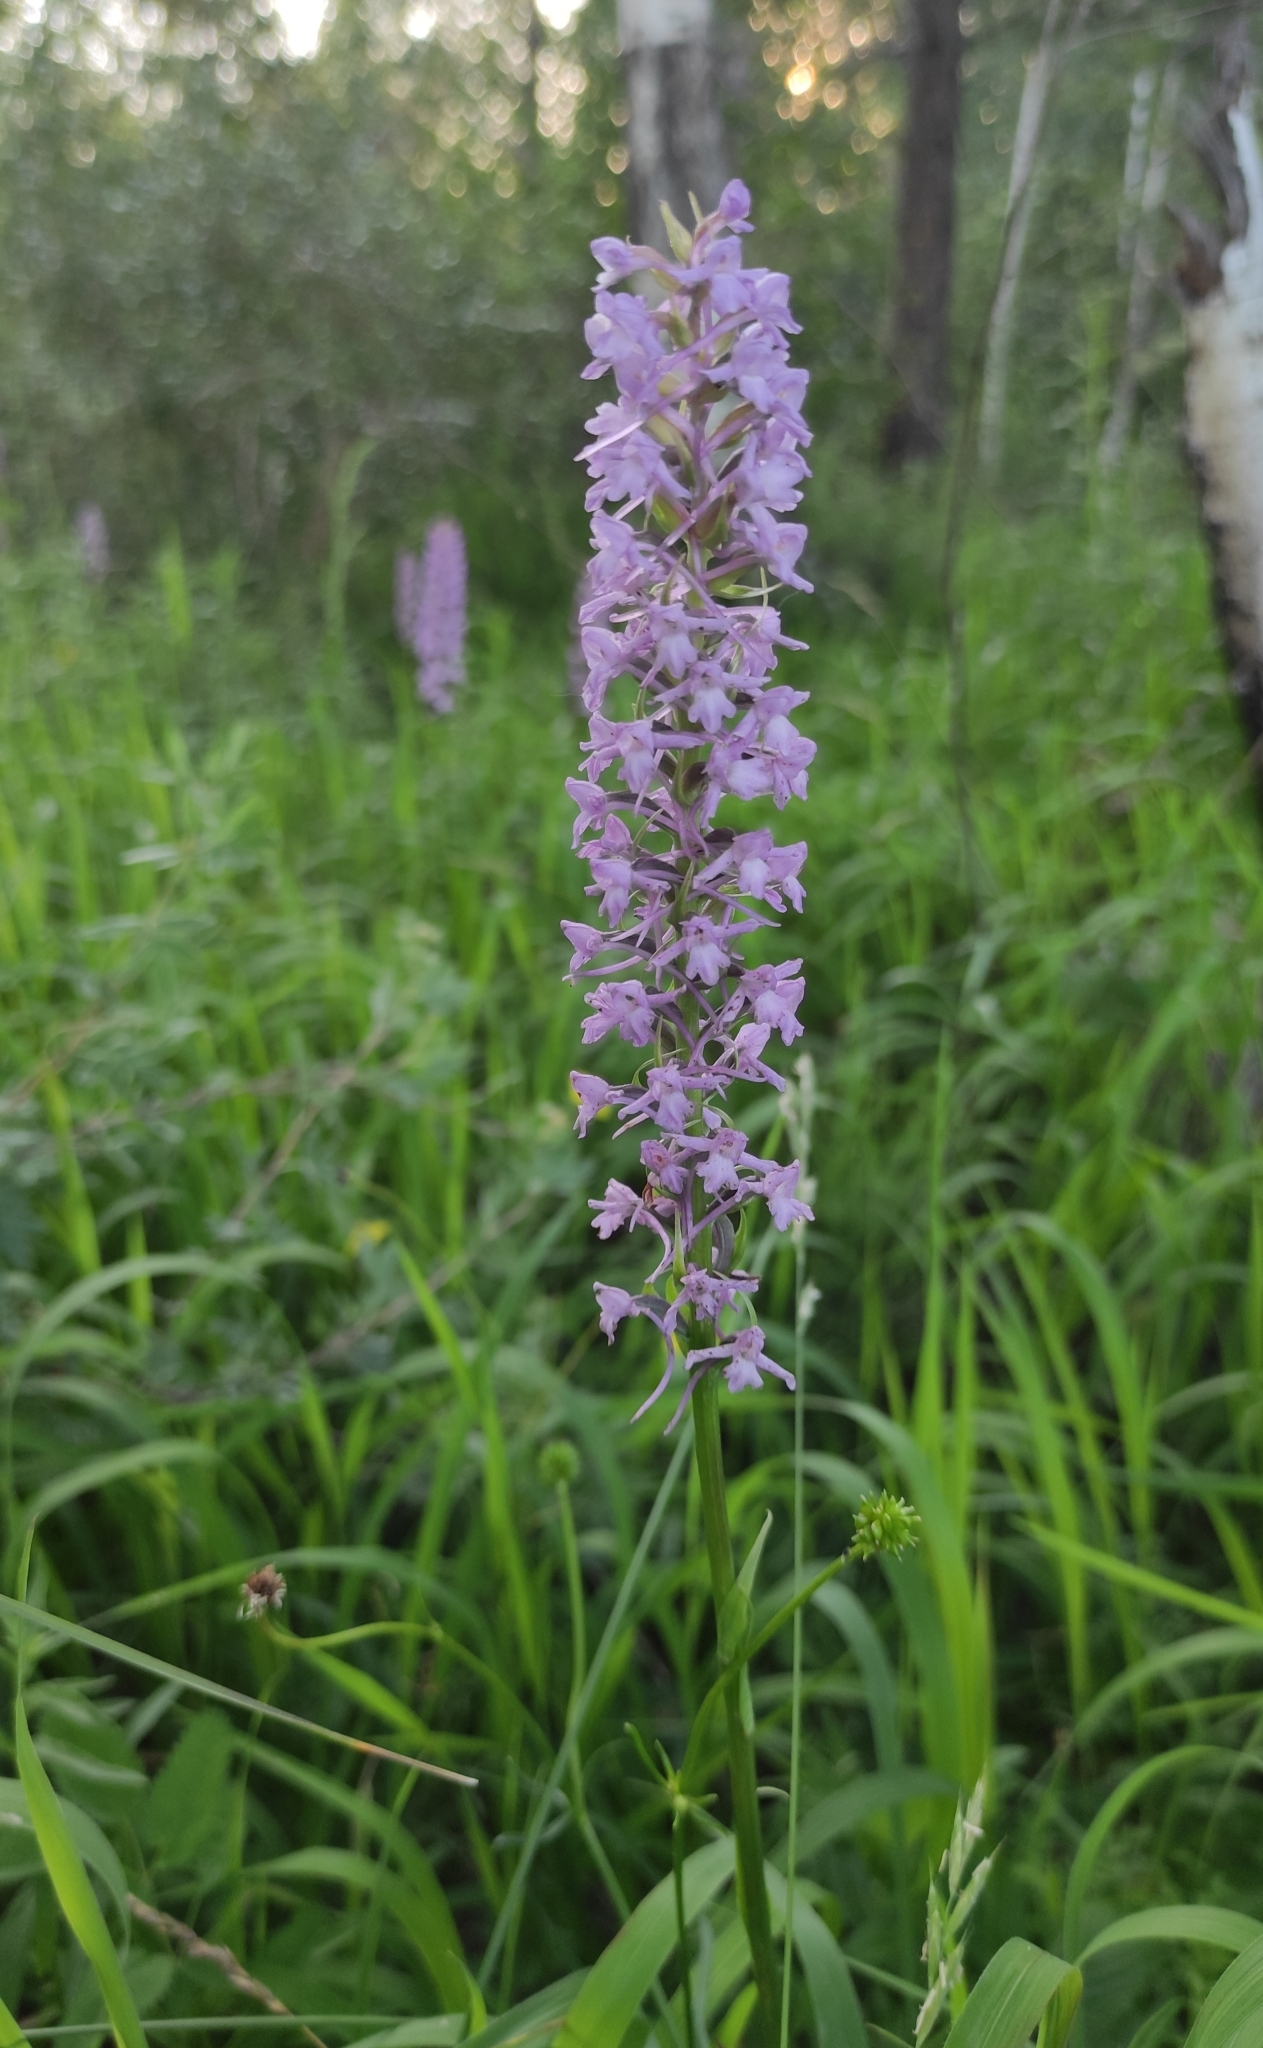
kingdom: Plantae
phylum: Tracheophyta
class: Liliopsida
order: Asparagales
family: Orchidaceae
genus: Gymnadenia
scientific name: Gymnadenia conopsea
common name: Fragrant orchid
